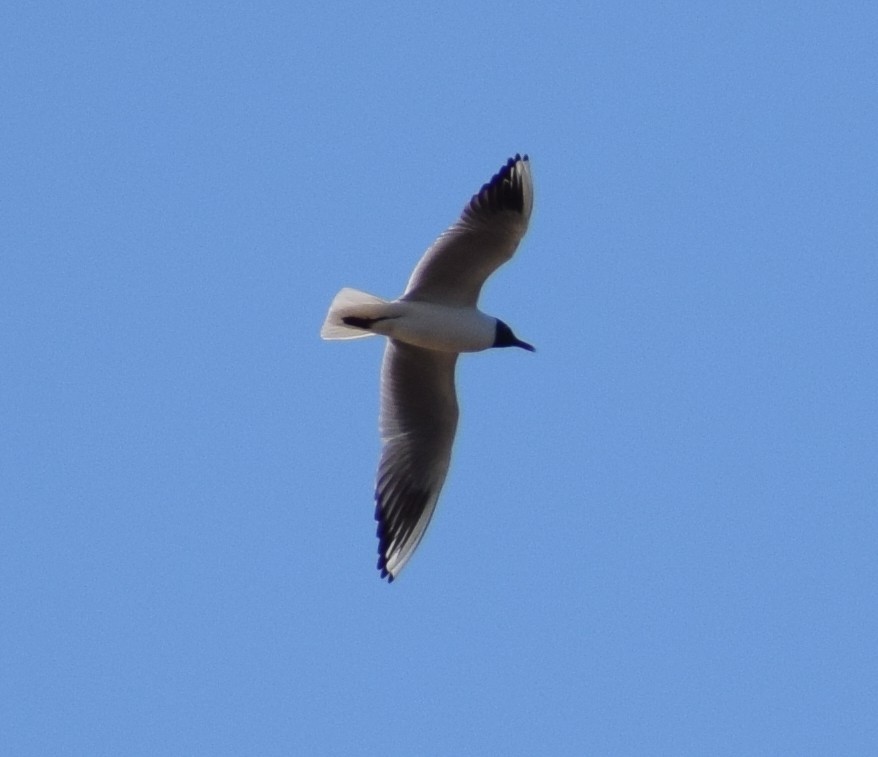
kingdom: Animalia
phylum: Chordata
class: Aves
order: Charadriiformes
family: Laridae
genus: Chroicocephalus
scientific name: Chroicocephalus ridibundus
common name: Black-headed gull
